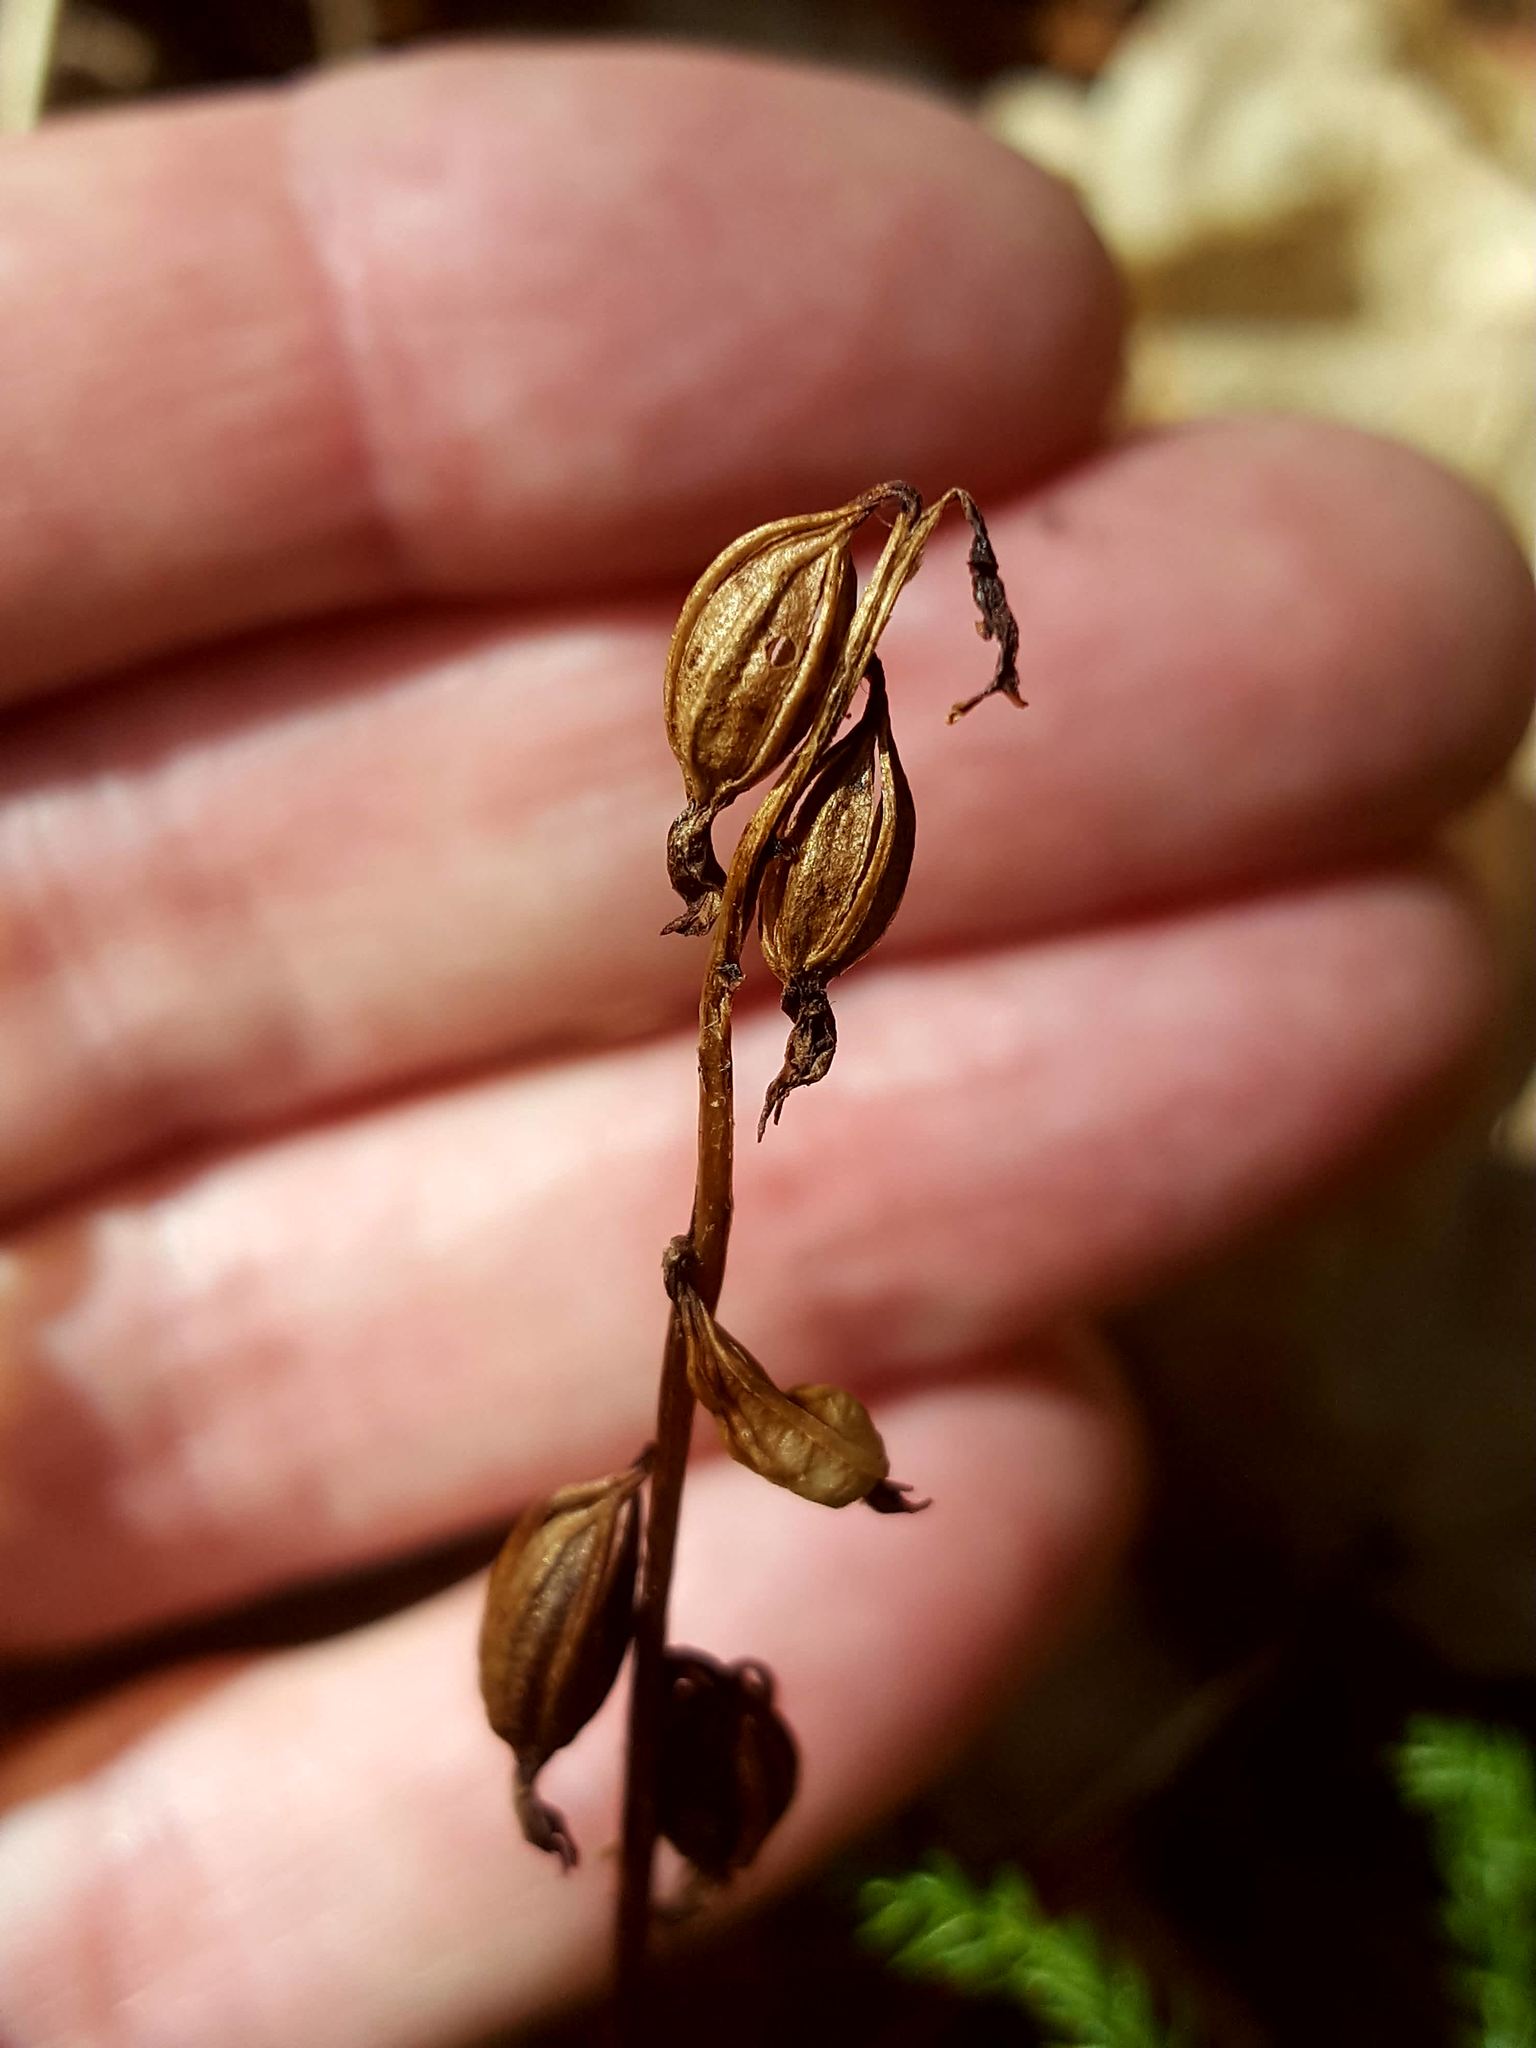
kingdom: Plantae
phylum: Tracheophyta
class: Liliopsida
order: Asparagales
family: Orchidaceae
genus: Corallorhiza
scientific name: Corallorhiza trifida
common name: Yellow coralroot
